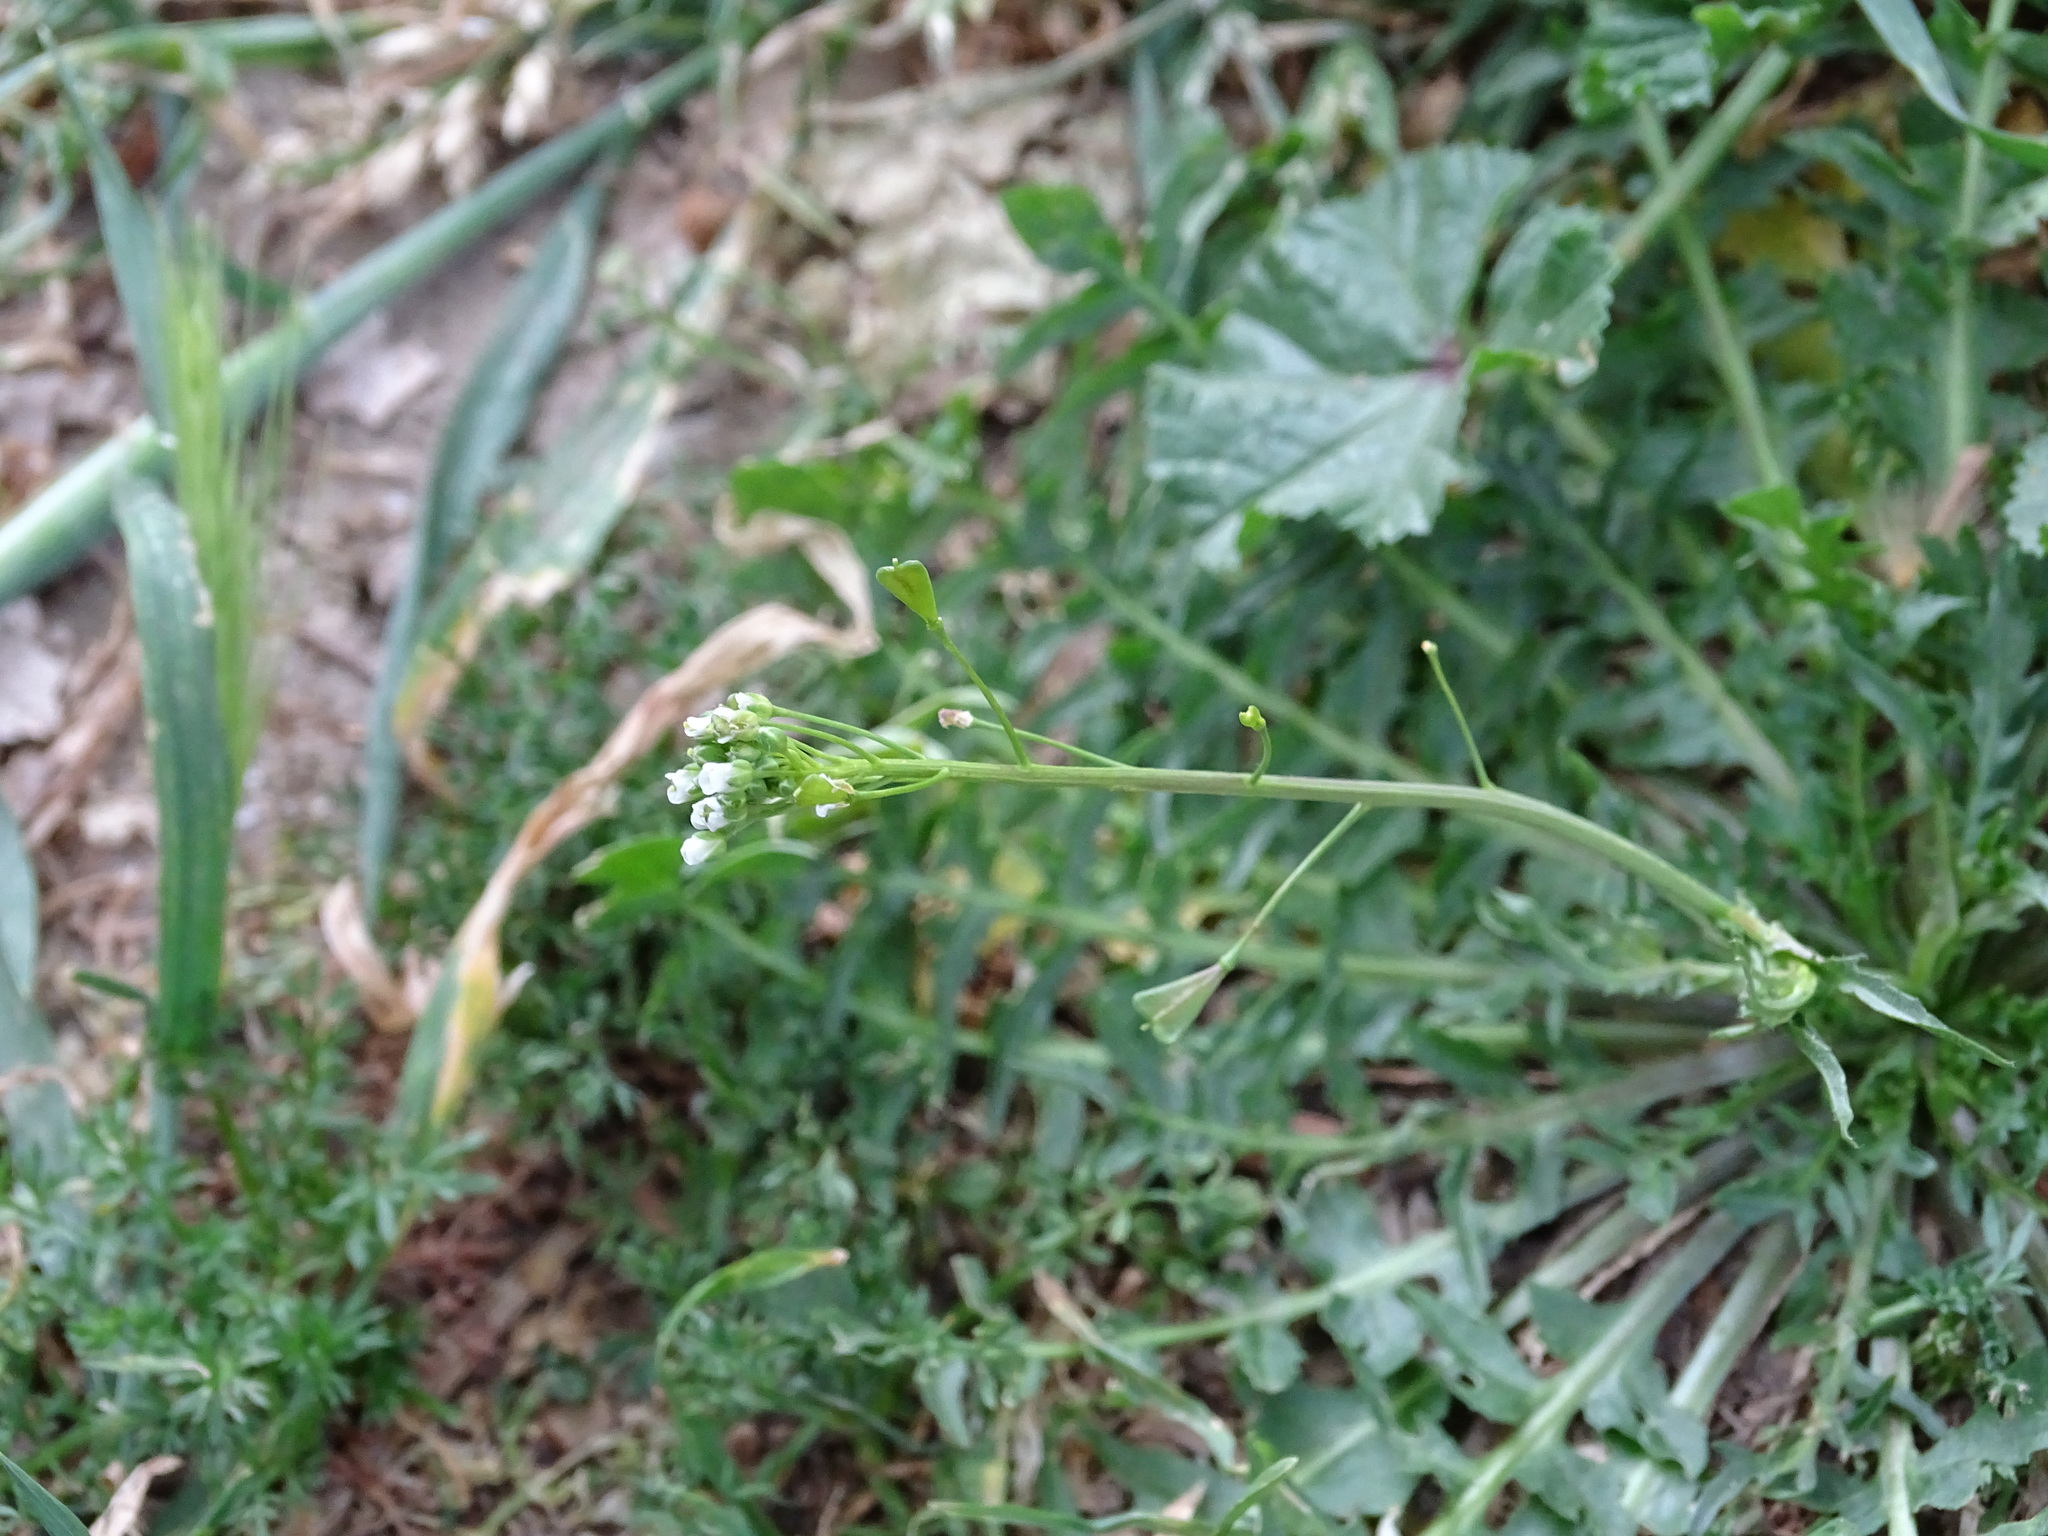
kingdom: Plantae
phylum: Tracheophyta
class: Magnoliopsida
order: Brassicales
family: Brassicaceae
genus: Capsella
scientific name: Capsella bursa-pastoris
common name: Shepherd's purse
